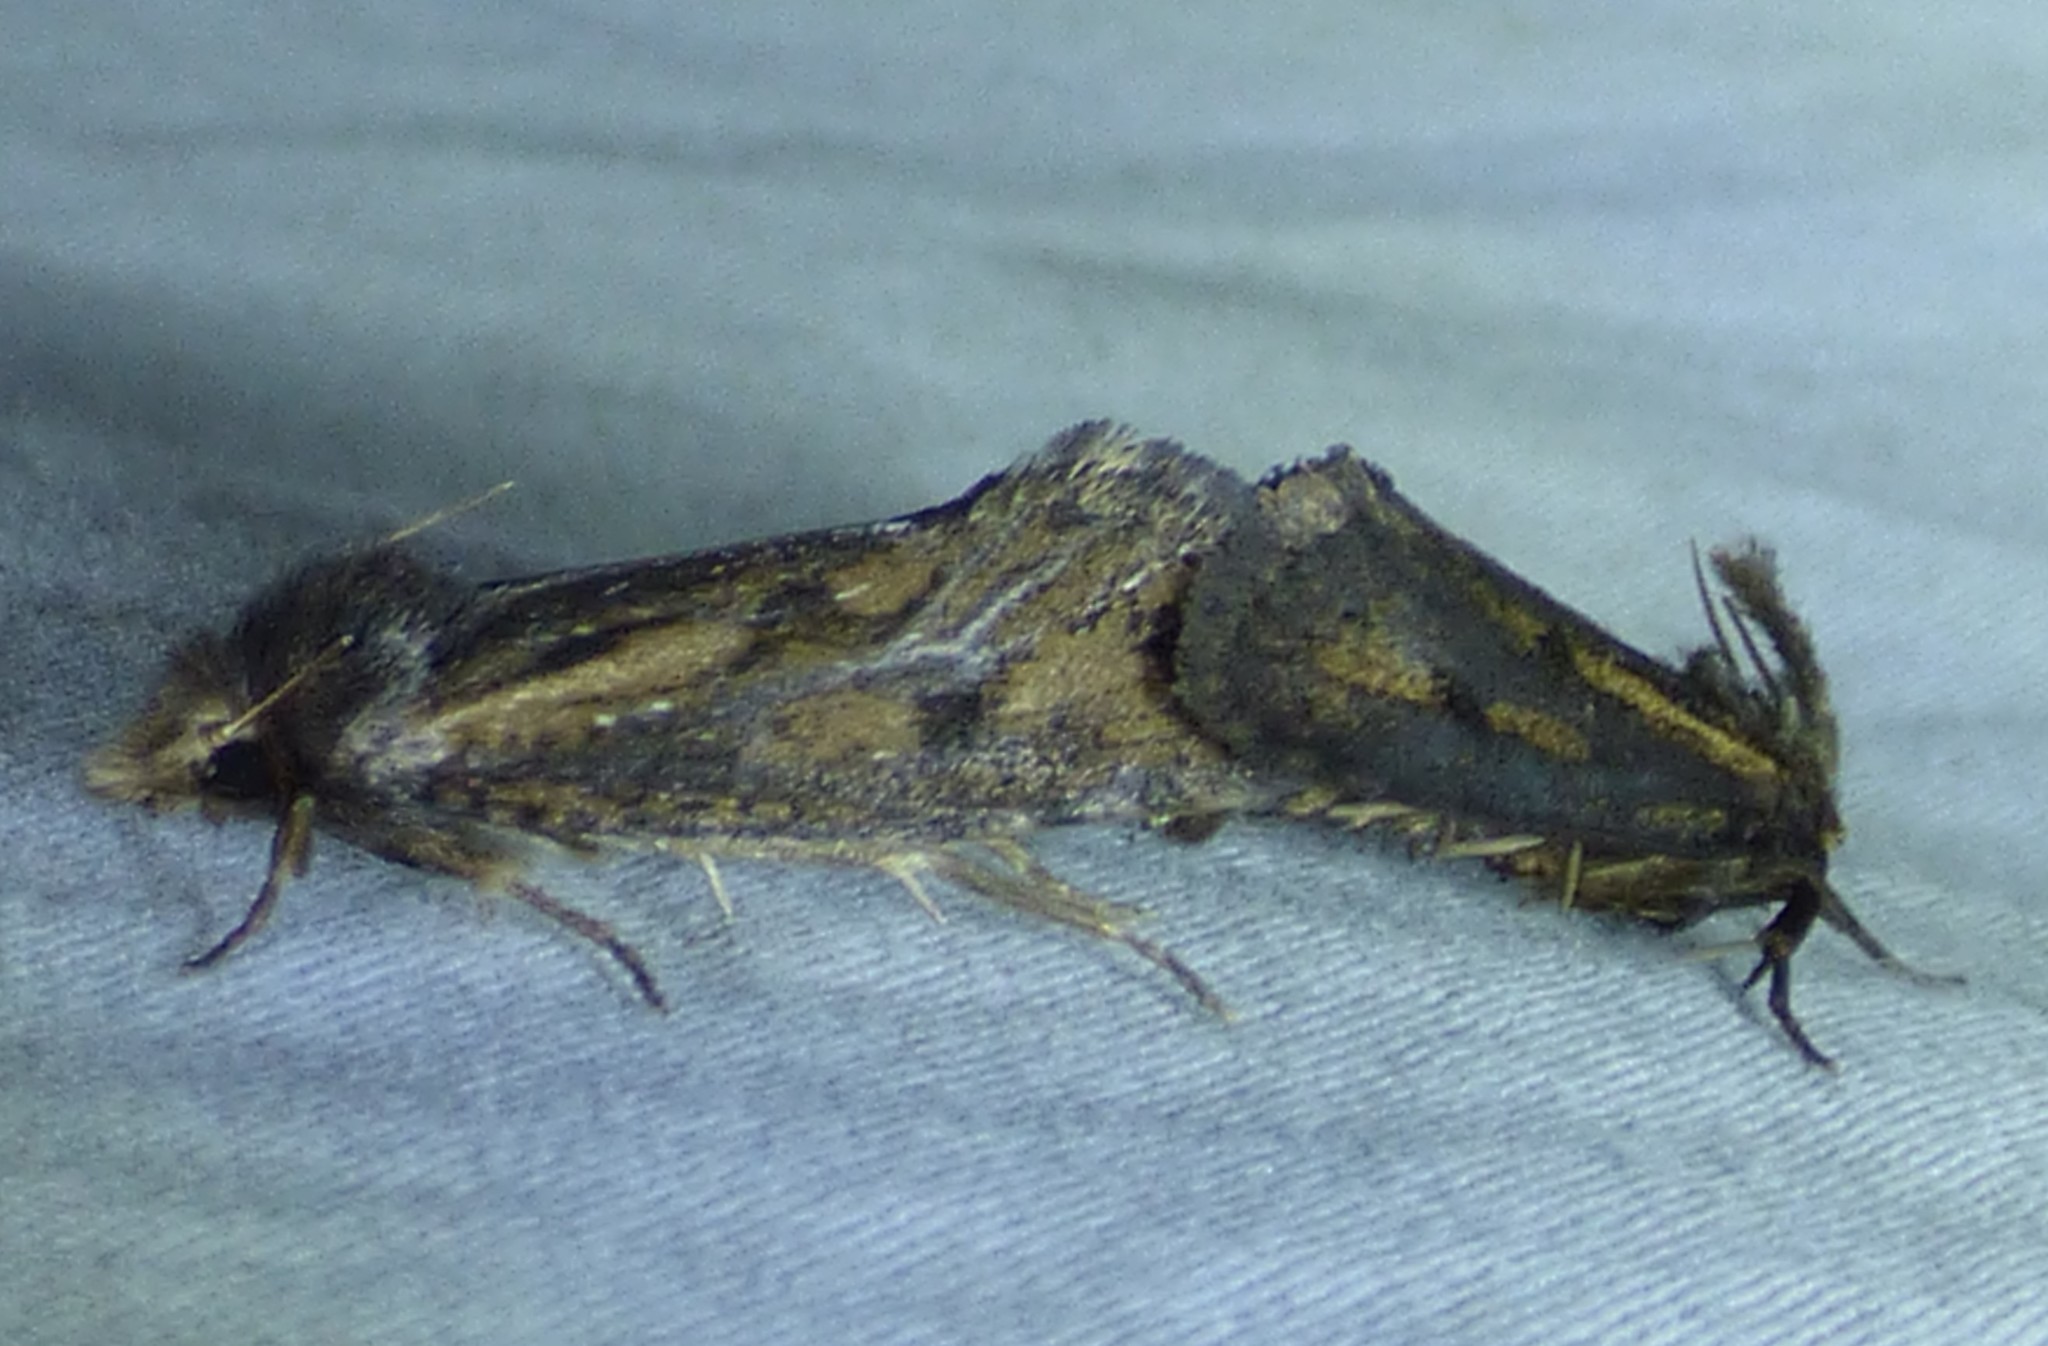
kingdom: Animalia
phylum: Arthropoda
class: Insecta
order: Lepidoptera
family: Tineidae
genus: Acrolophus
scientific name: Acrolophus popeanella
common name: Clemens' grass tubeworm moth
